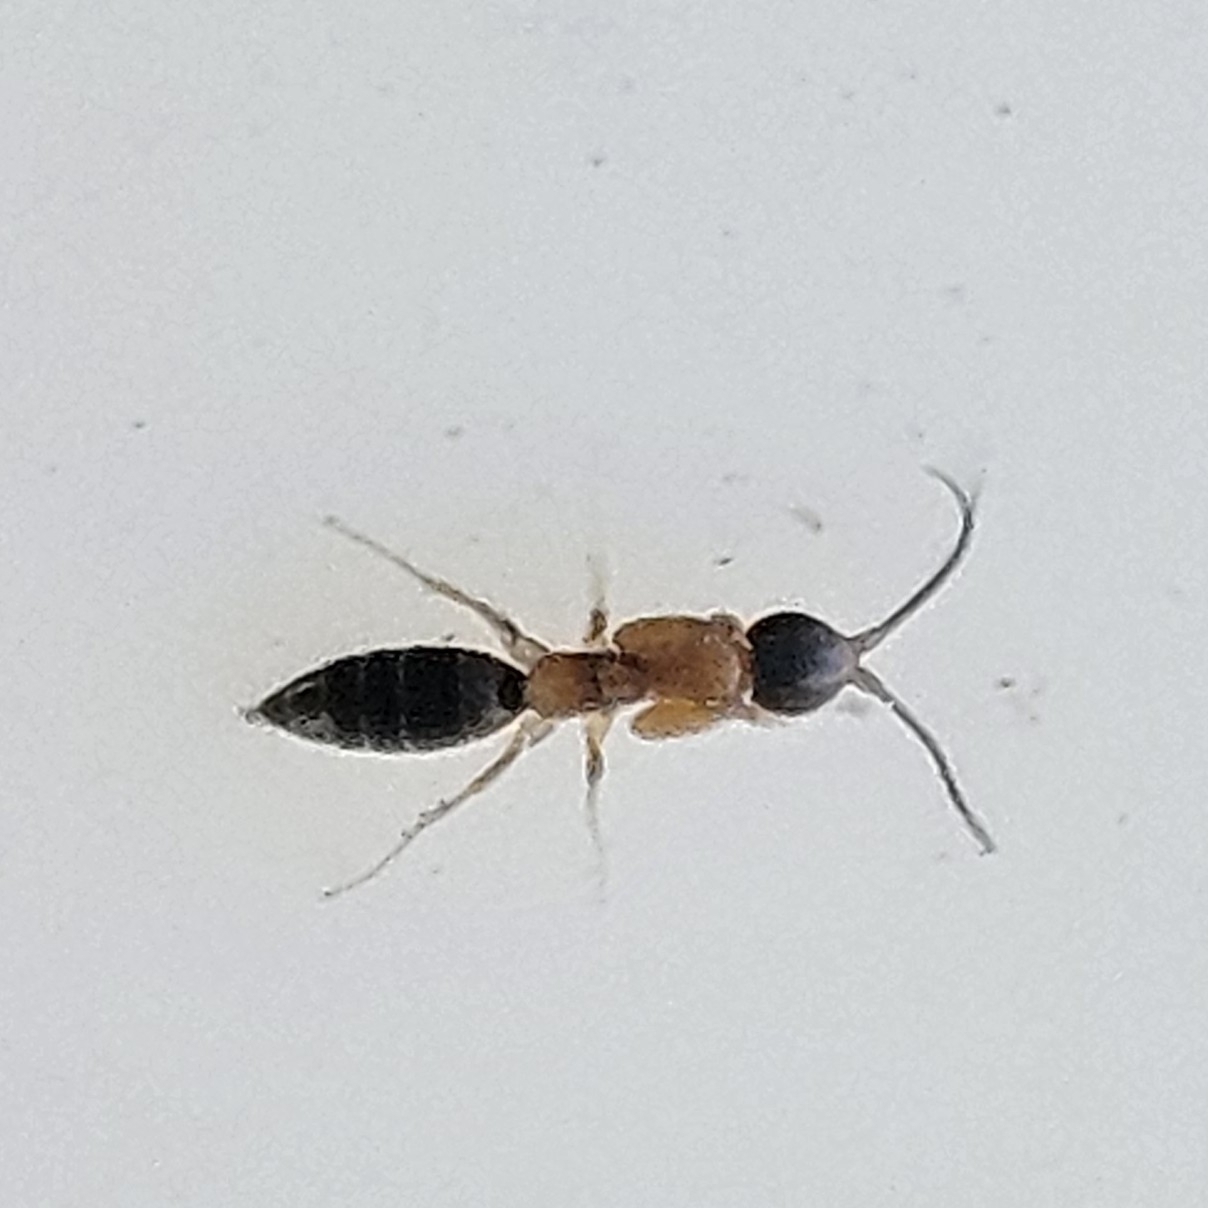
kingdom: Animalia
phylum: Arthropoda
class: Insecta
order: Hymenoptera
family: Sclerogibbidae
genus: Sclerogibba
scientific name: Sclerogibba rossi
